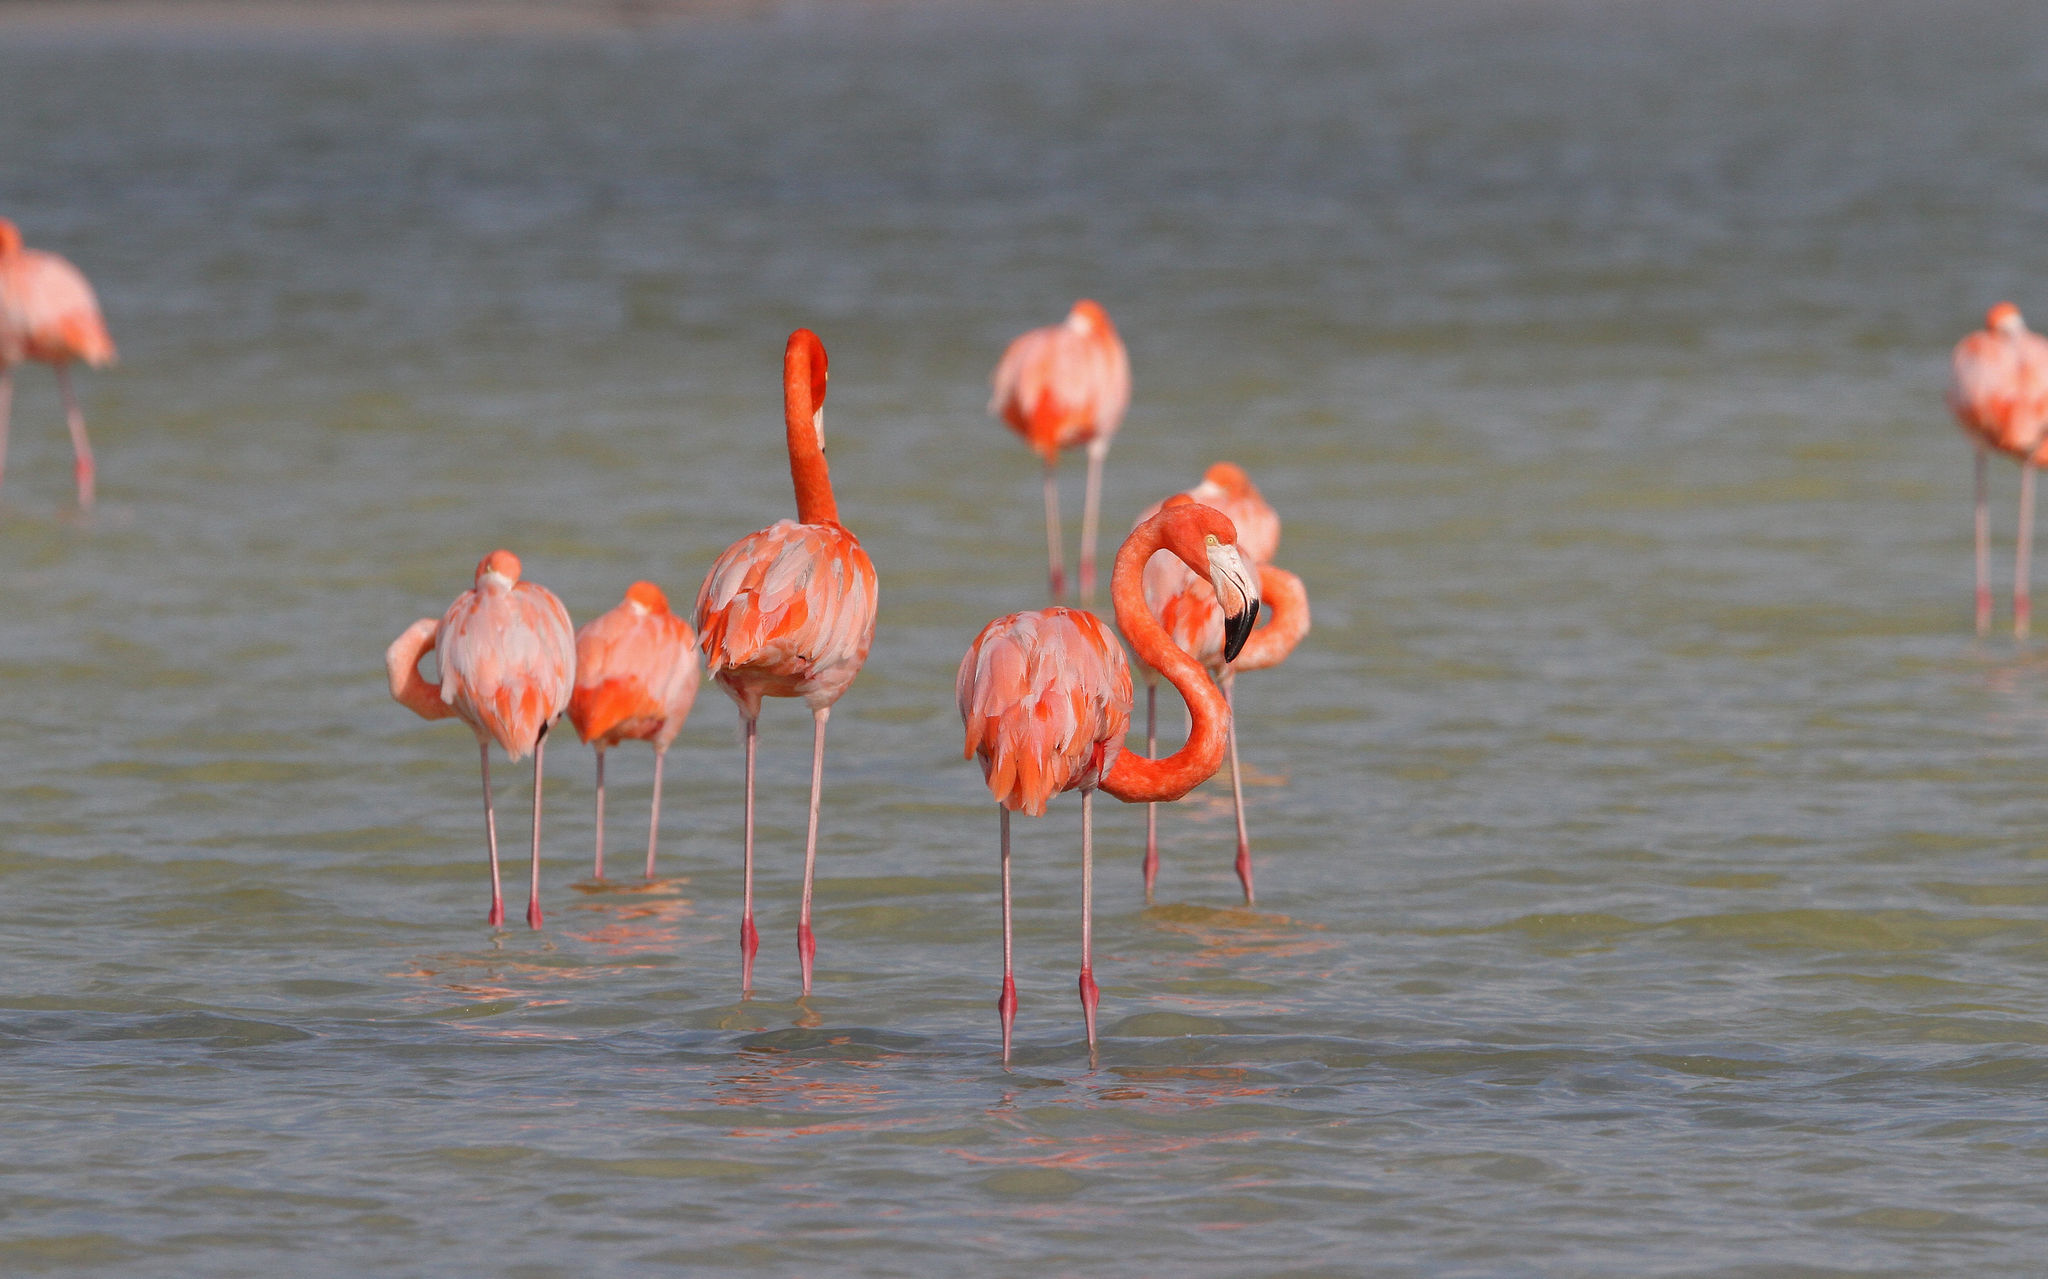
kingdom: Animalia
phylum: Chordata
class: Aves
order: Phoenicopteriformes
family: Phoenicopteridae
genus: Phoenicopterus
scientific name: Phoenicopterus ruber
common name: American flamingo
